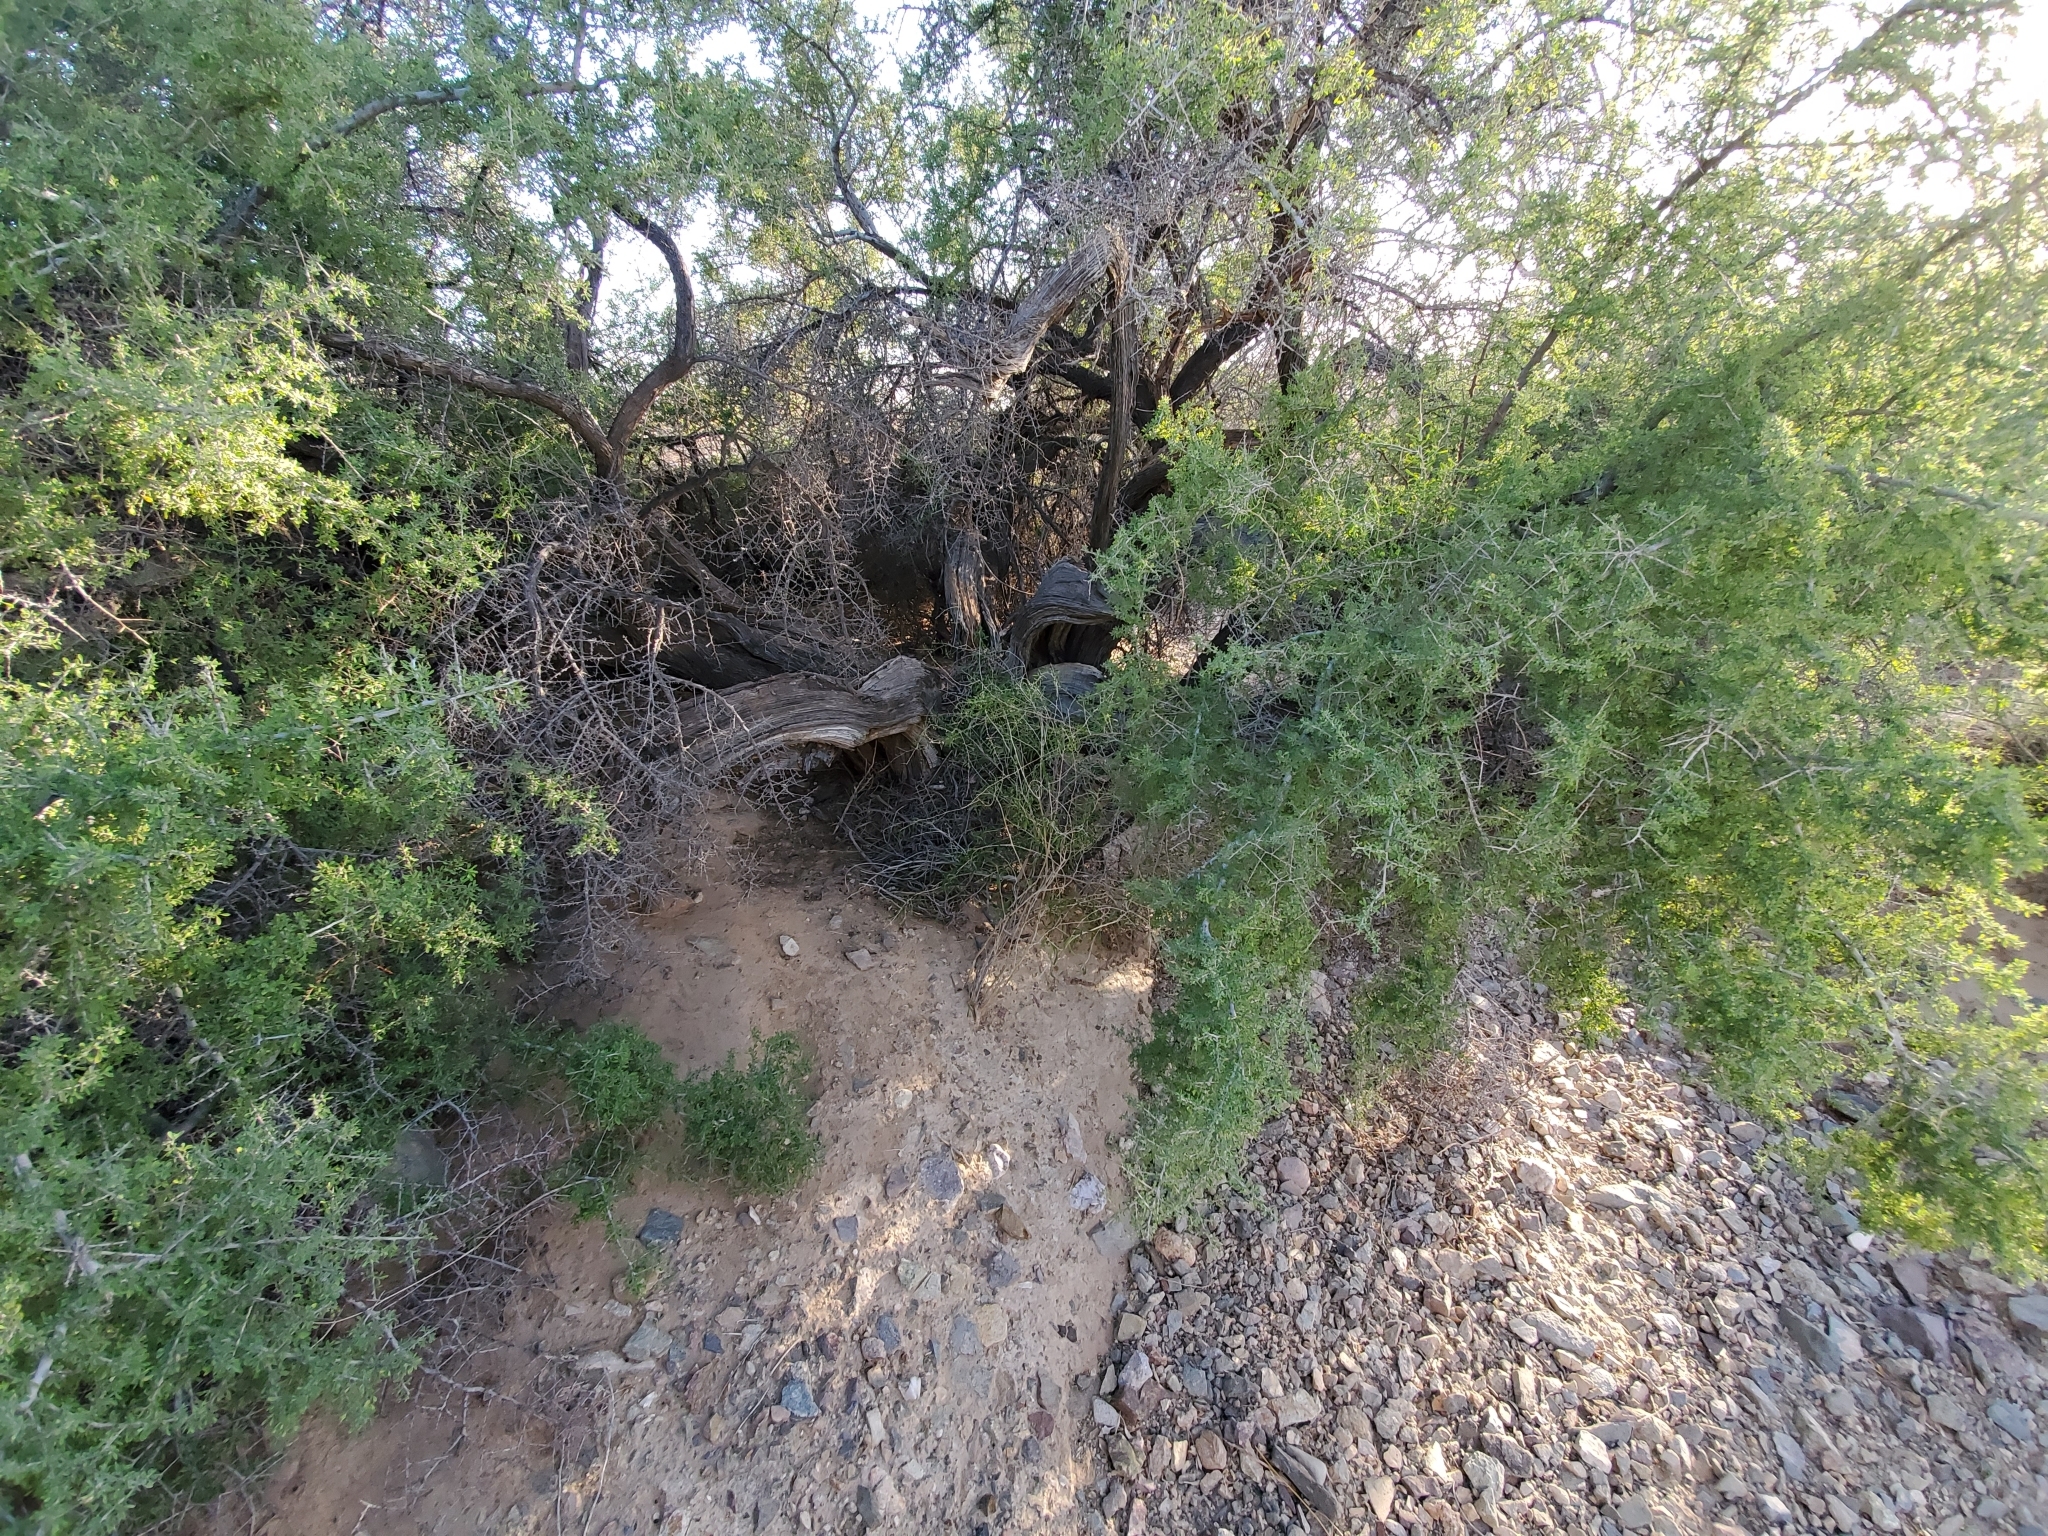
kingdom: Plantae
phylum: Tracheophyta
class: Magnoliopsida
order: Rosales
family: Rhamnaceae
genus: Condalia
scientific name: Condalia globosa
